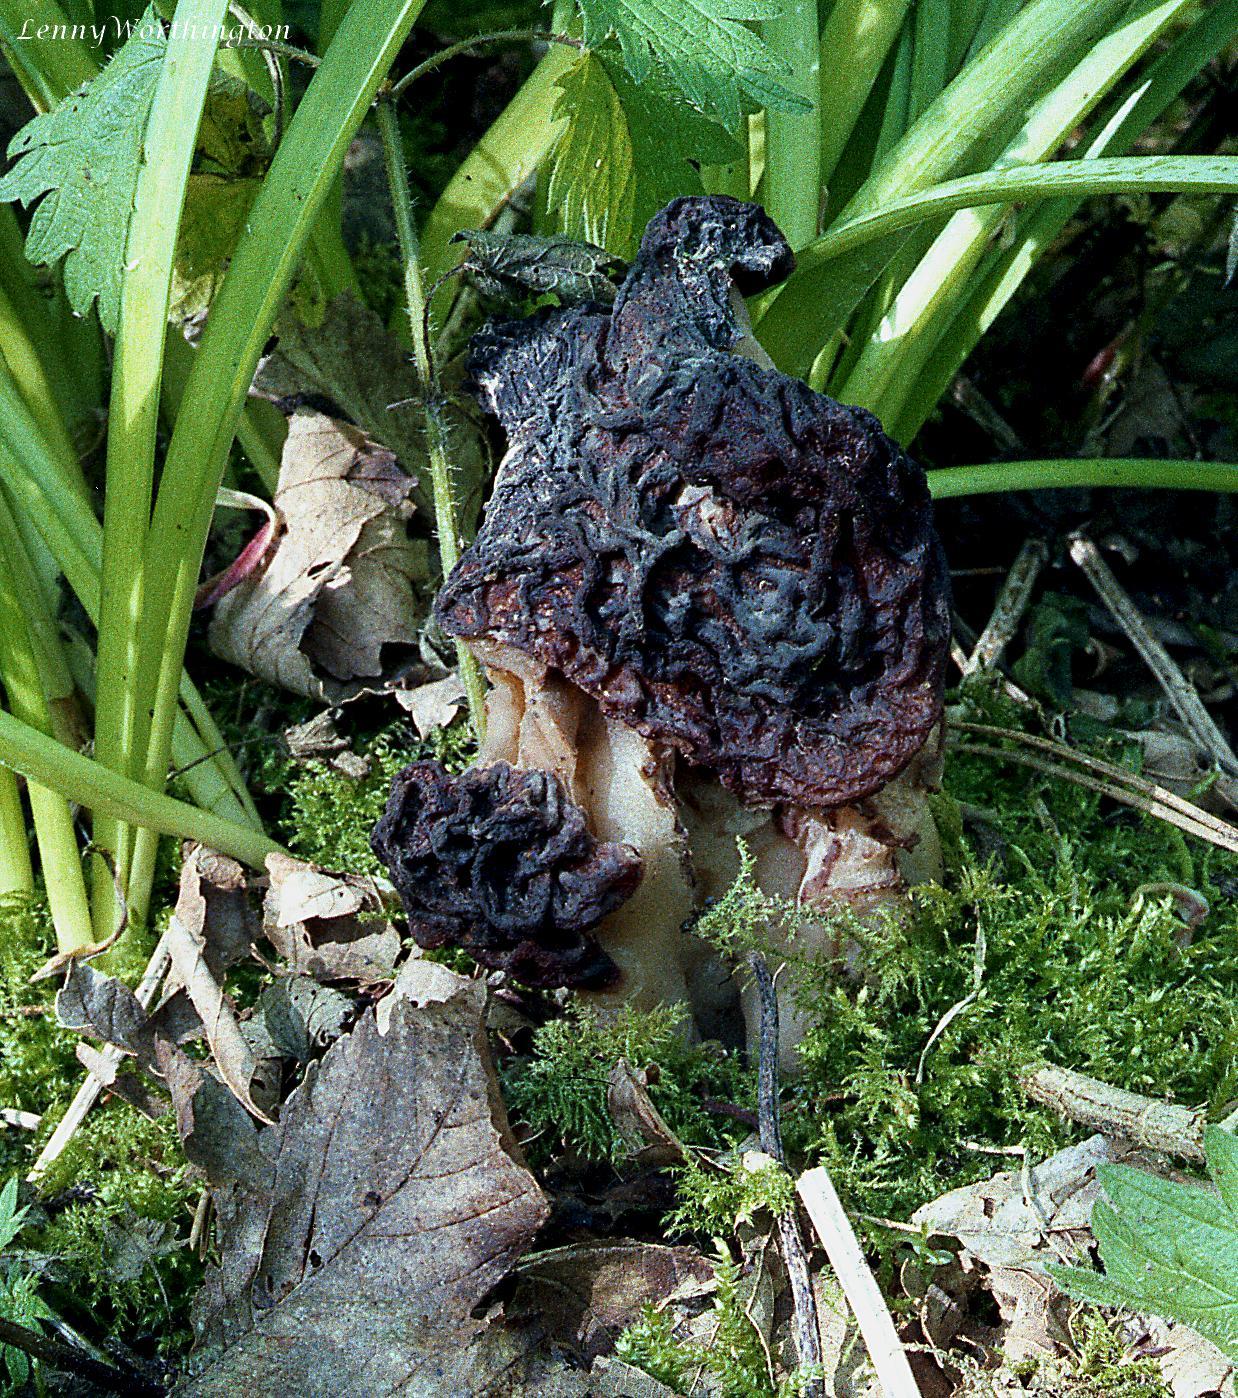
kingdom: Fungi
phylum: Ascomycota
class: Pezizomycetes
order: Pezizales
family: Discinaceae
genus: Gyromitra
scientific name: Gyromitra esculenta
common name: False morel
